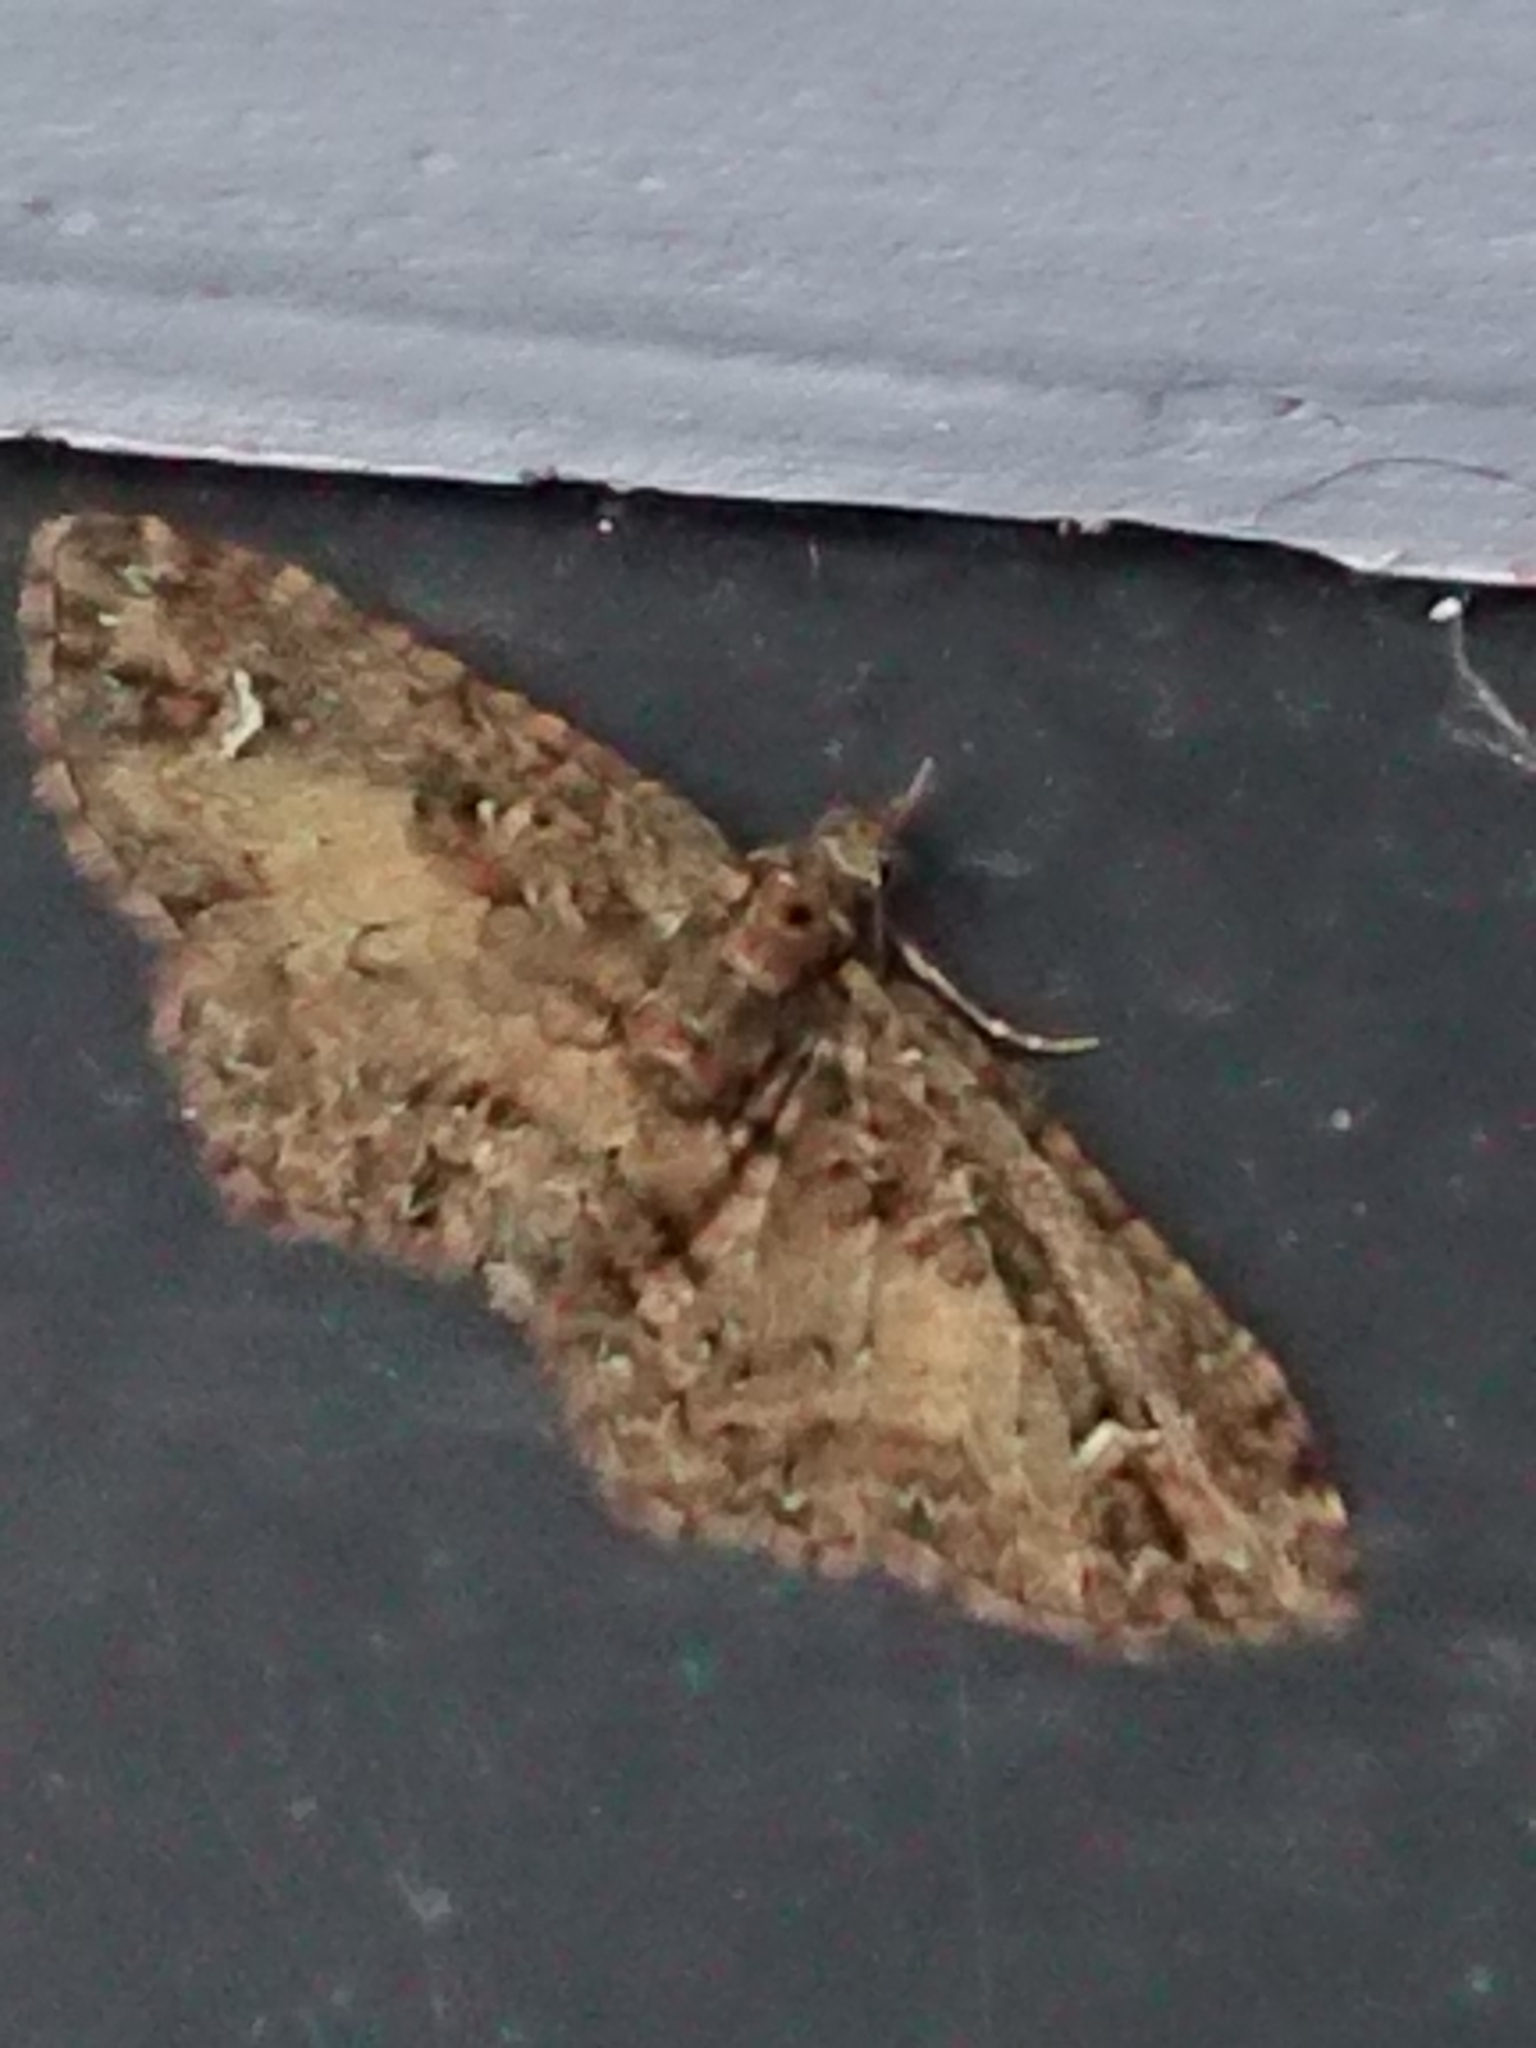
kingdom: Animalia
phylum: Arthropoda
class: Insecta
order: Lepidoptera
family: Geometridae
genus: Pasiphilodes
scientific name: Pasiphilodes testulata
